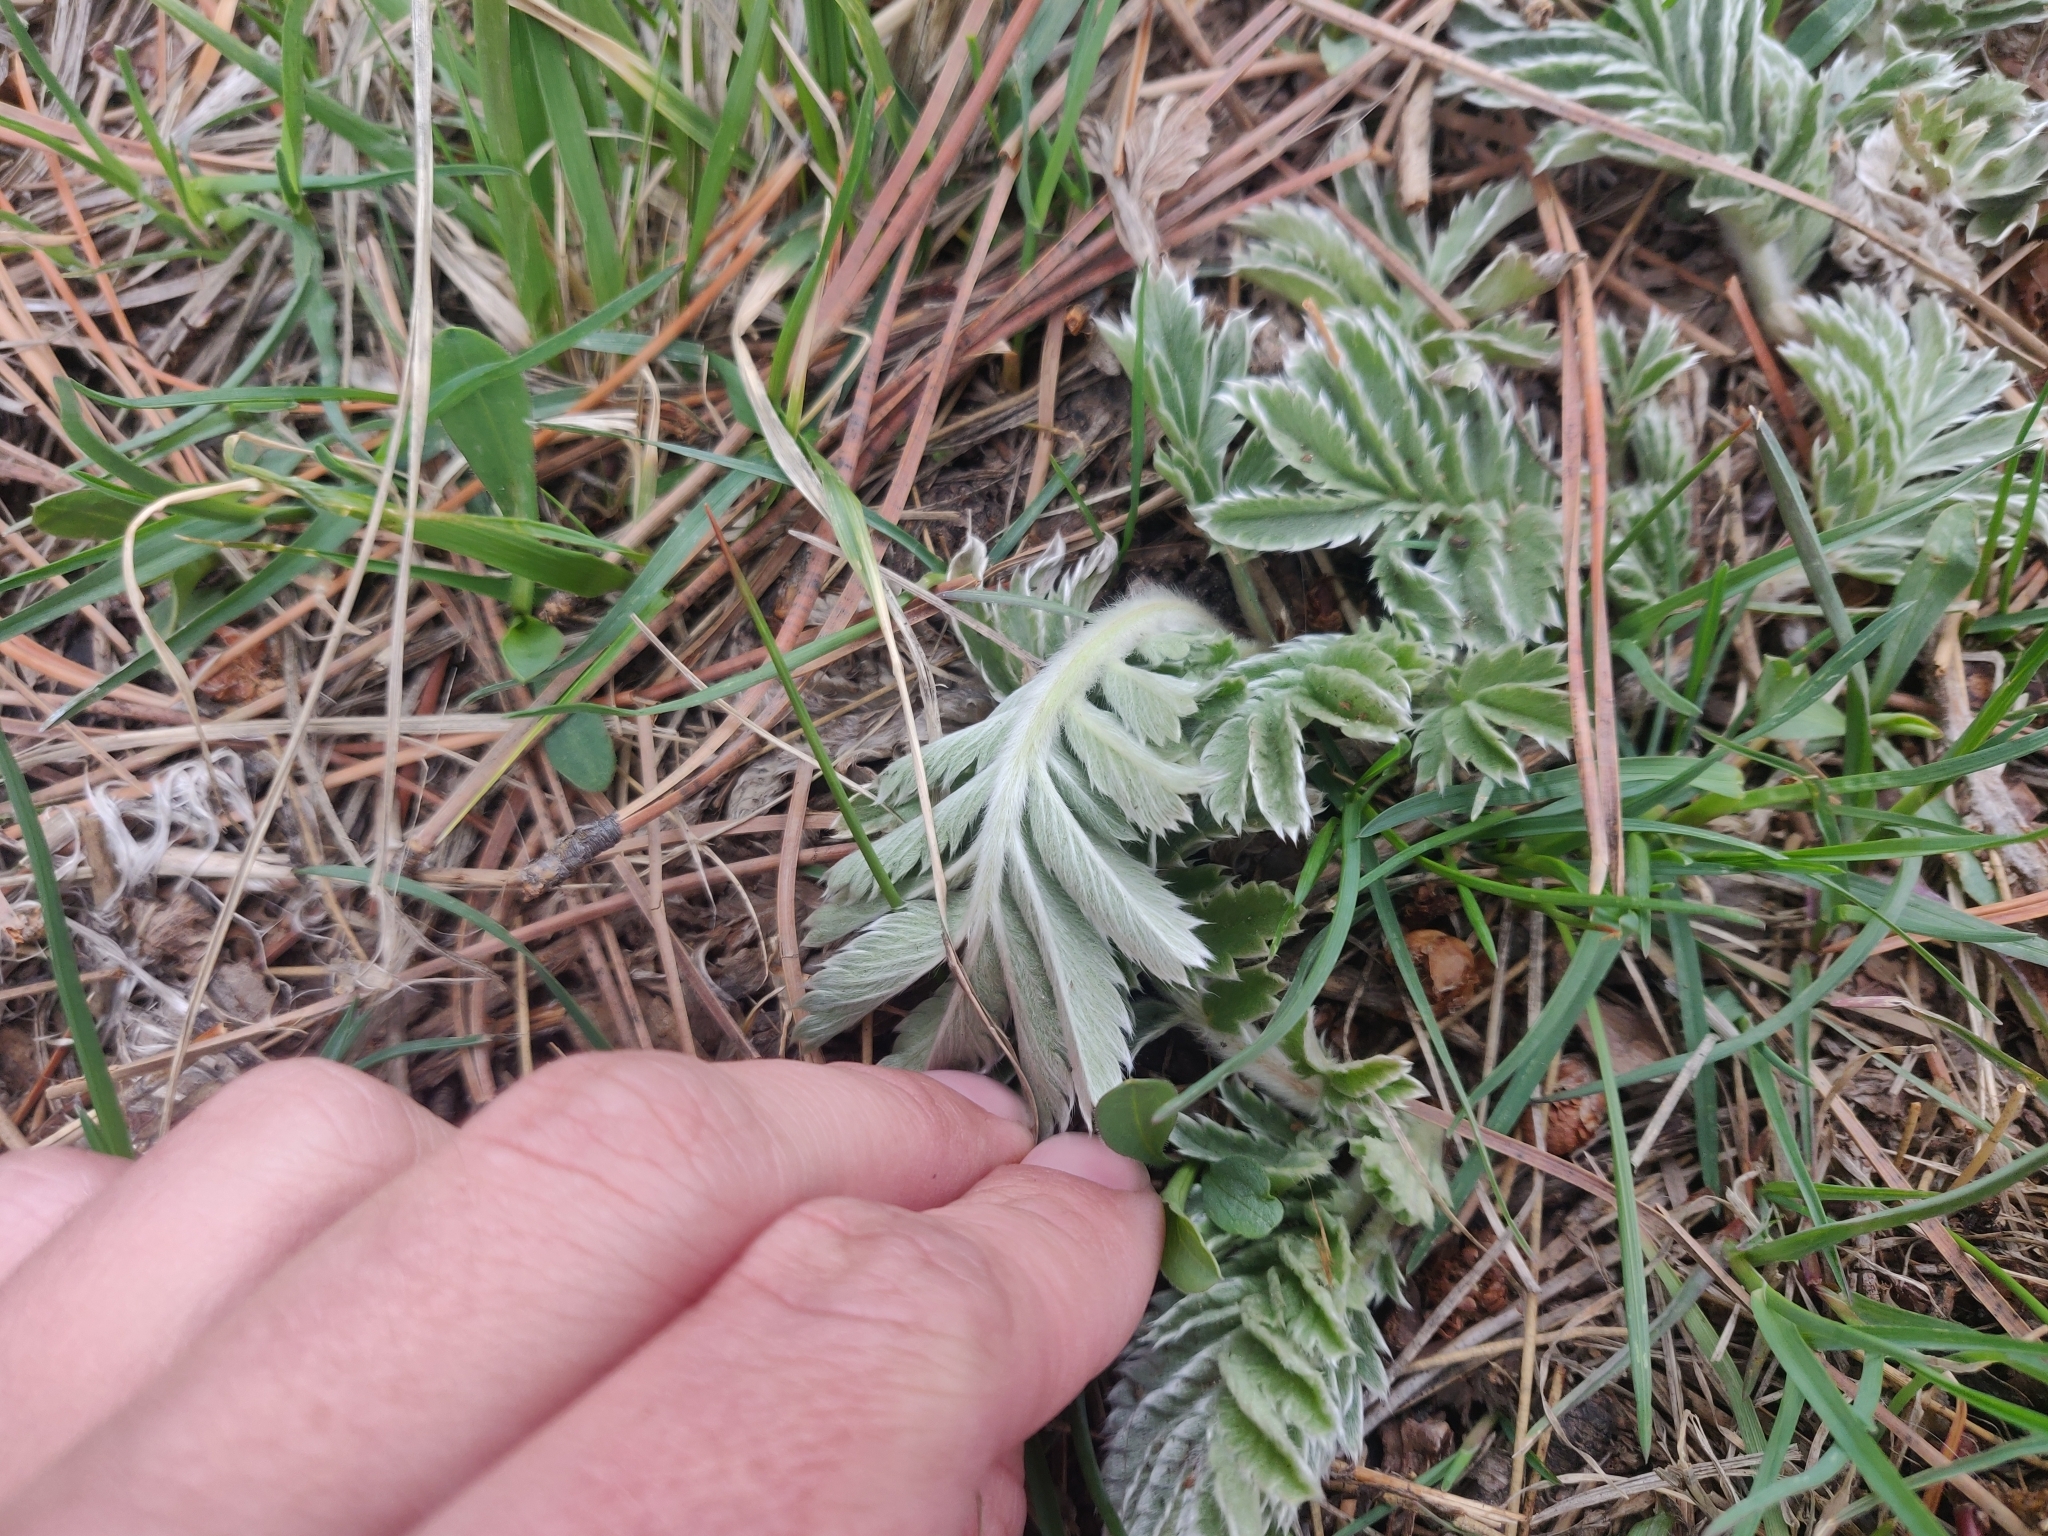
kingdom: Plantae
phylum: Tracheophyta
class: Magnoliopsida
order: Rosales
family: Rosaceae
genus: Argentina
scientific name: Argentina anserina
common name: Common silverweed
